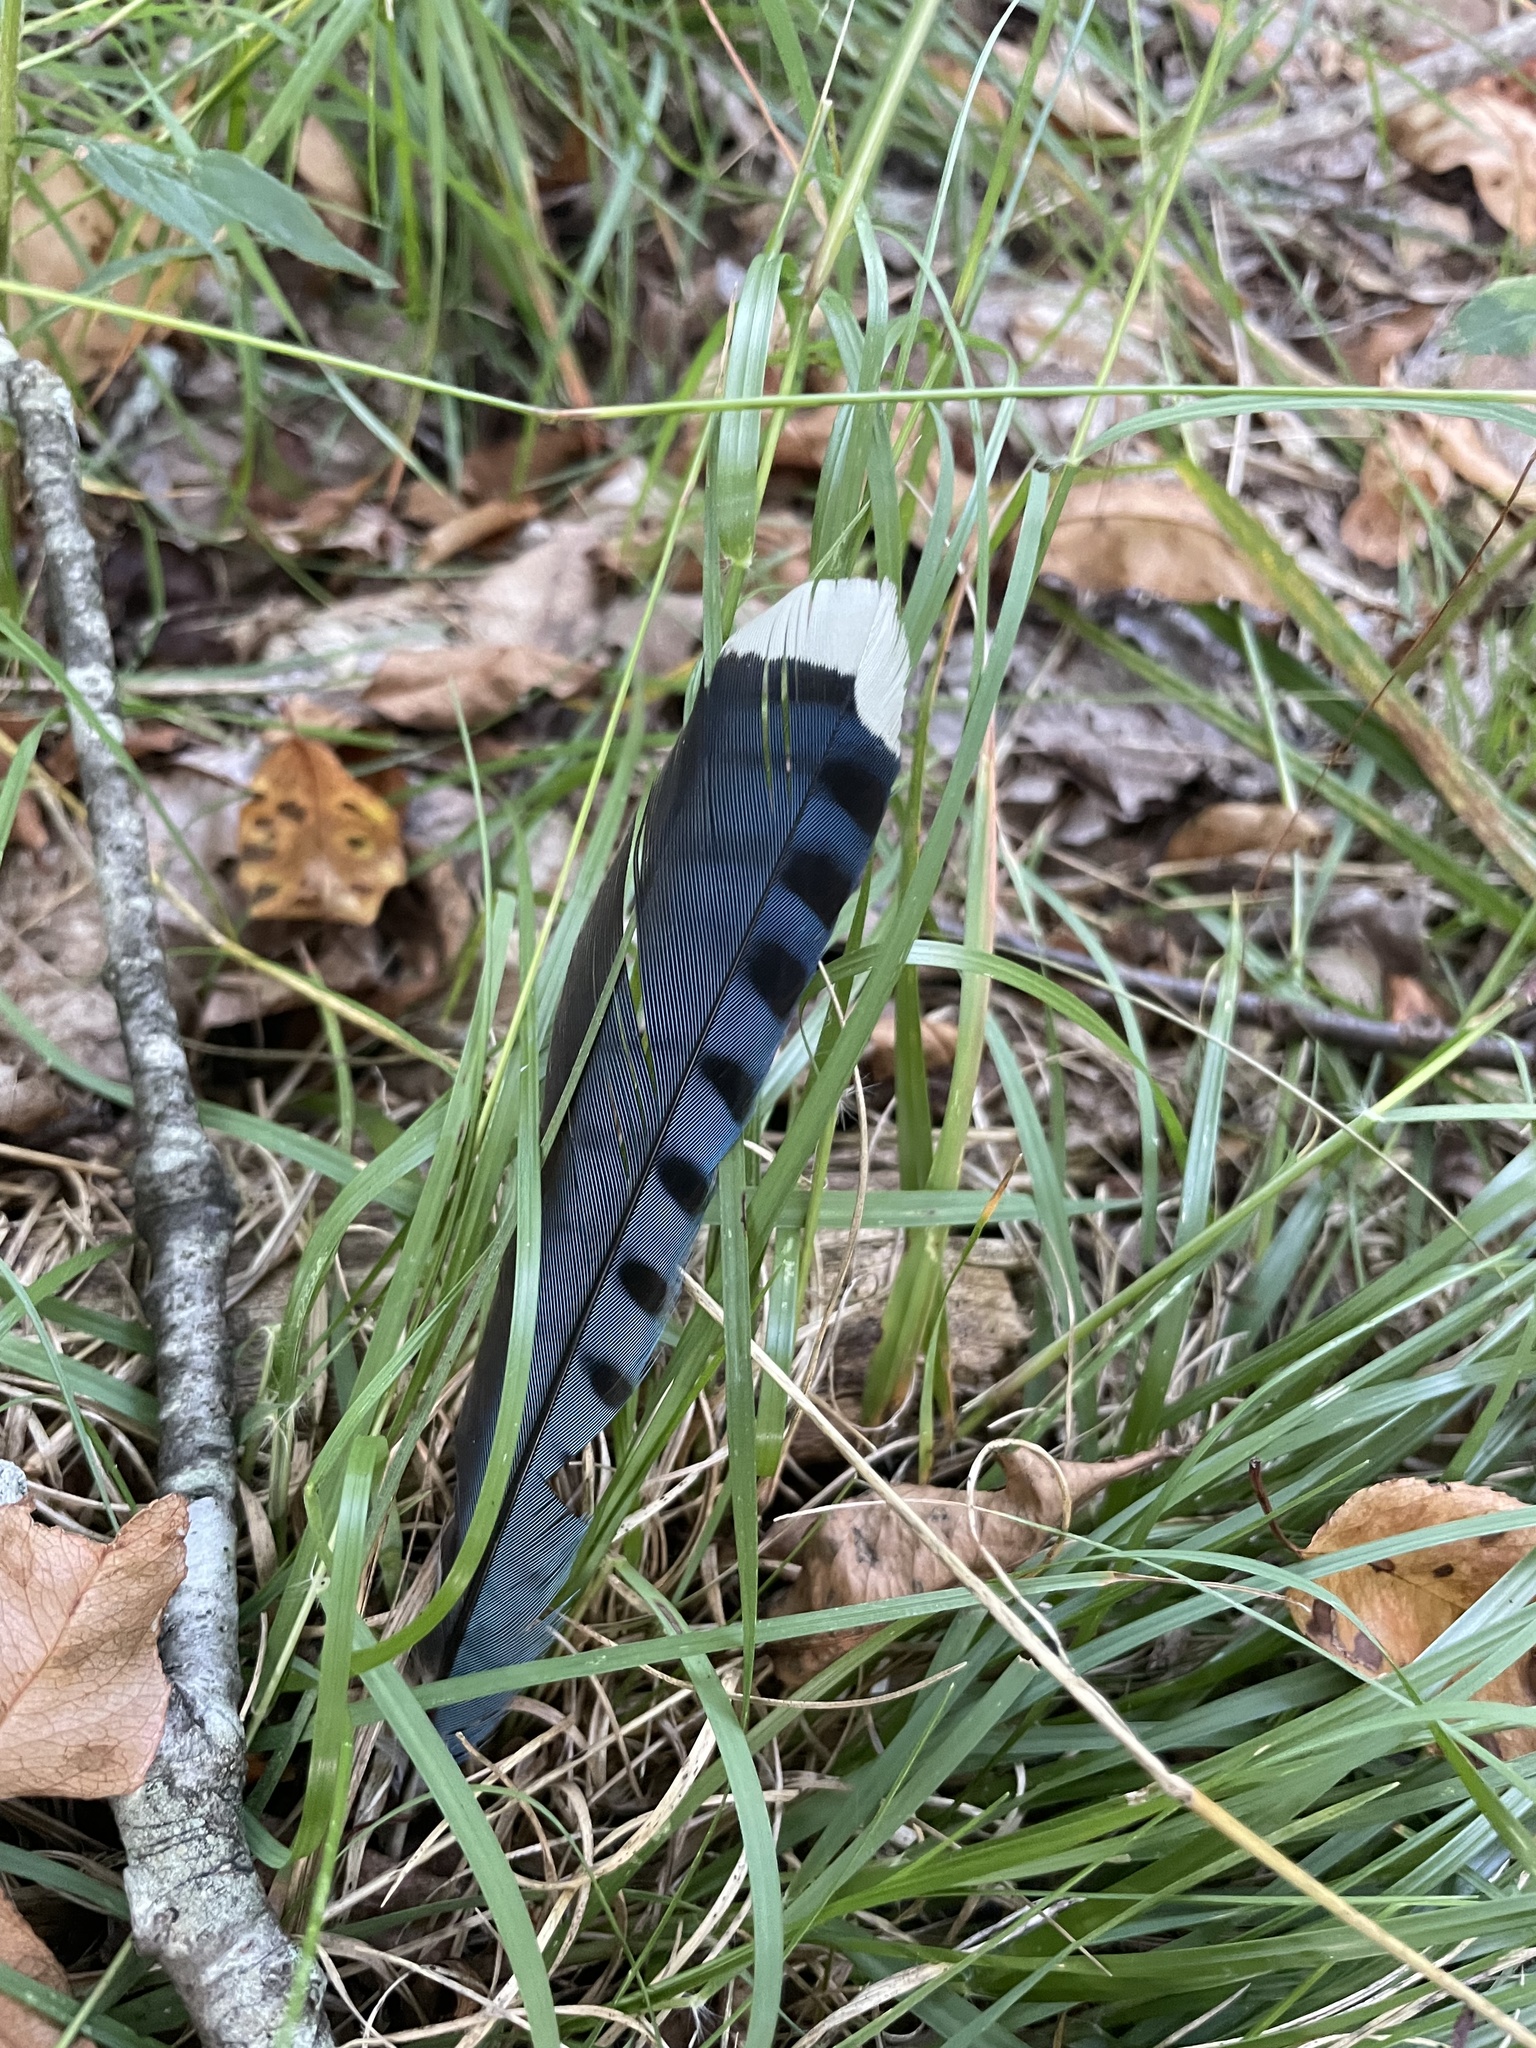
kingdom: Animalia
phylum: Chordata
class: Aves
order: Passeriformes
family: Corvidae
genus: Cyanocitta
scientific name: Cyanocitta cristata
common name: Blue jay
